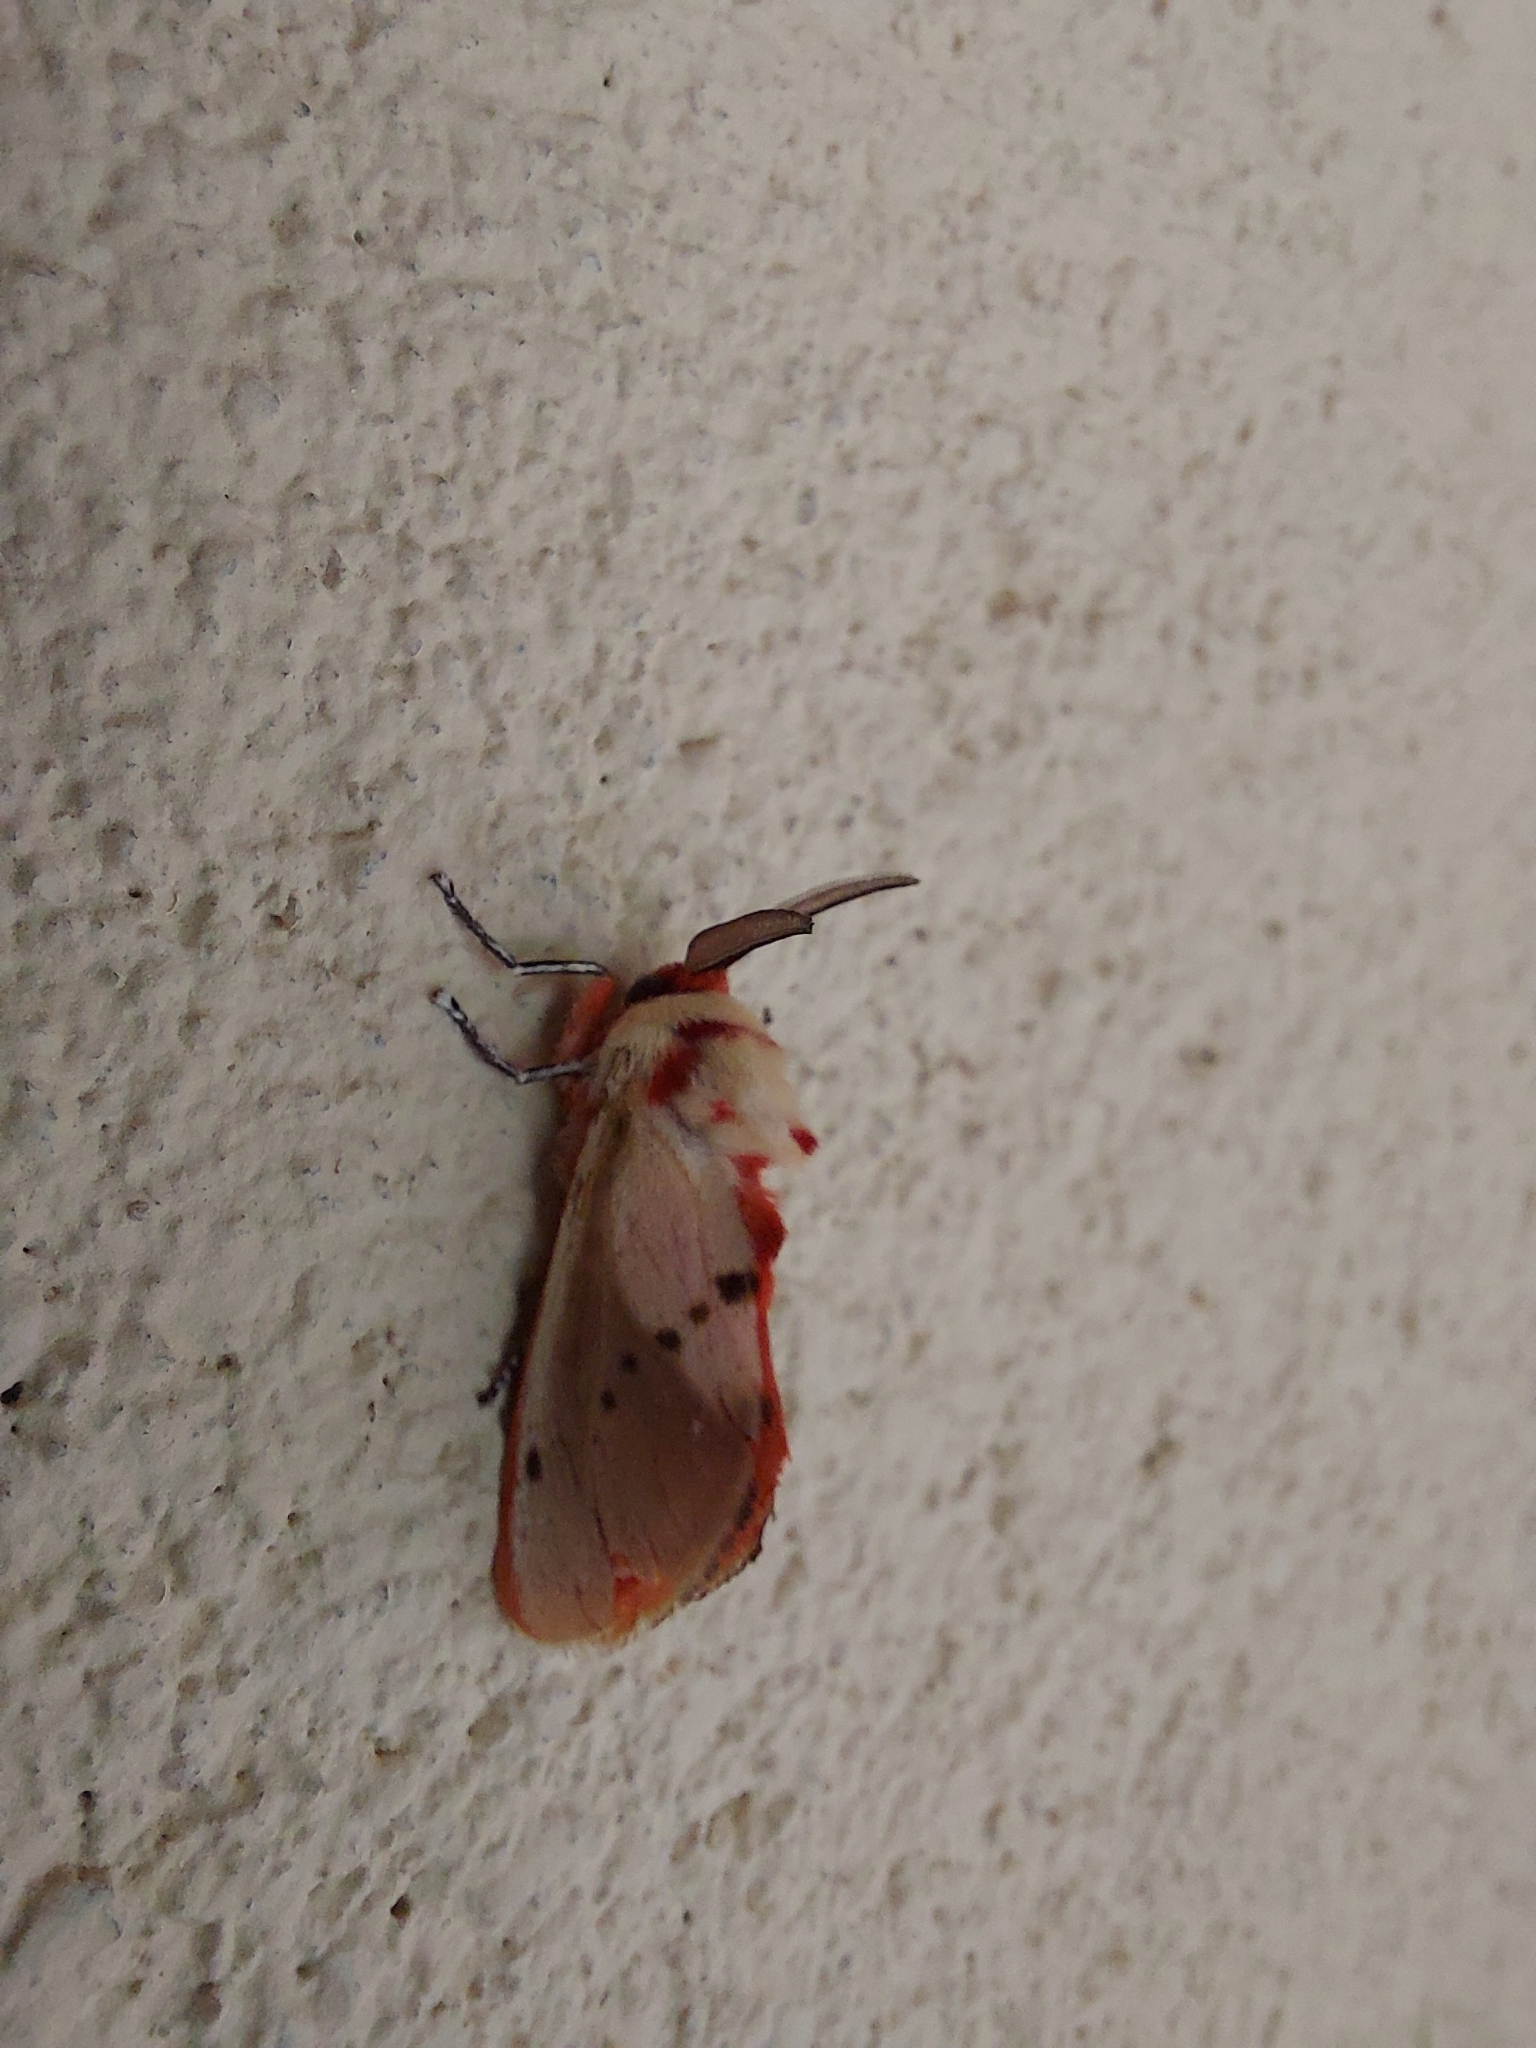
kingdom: Animalia
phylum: Arthropoda
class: Insecta
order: Lepidoptera
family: Megalopygidae
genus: Trosia
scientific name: Trosia fumosa
